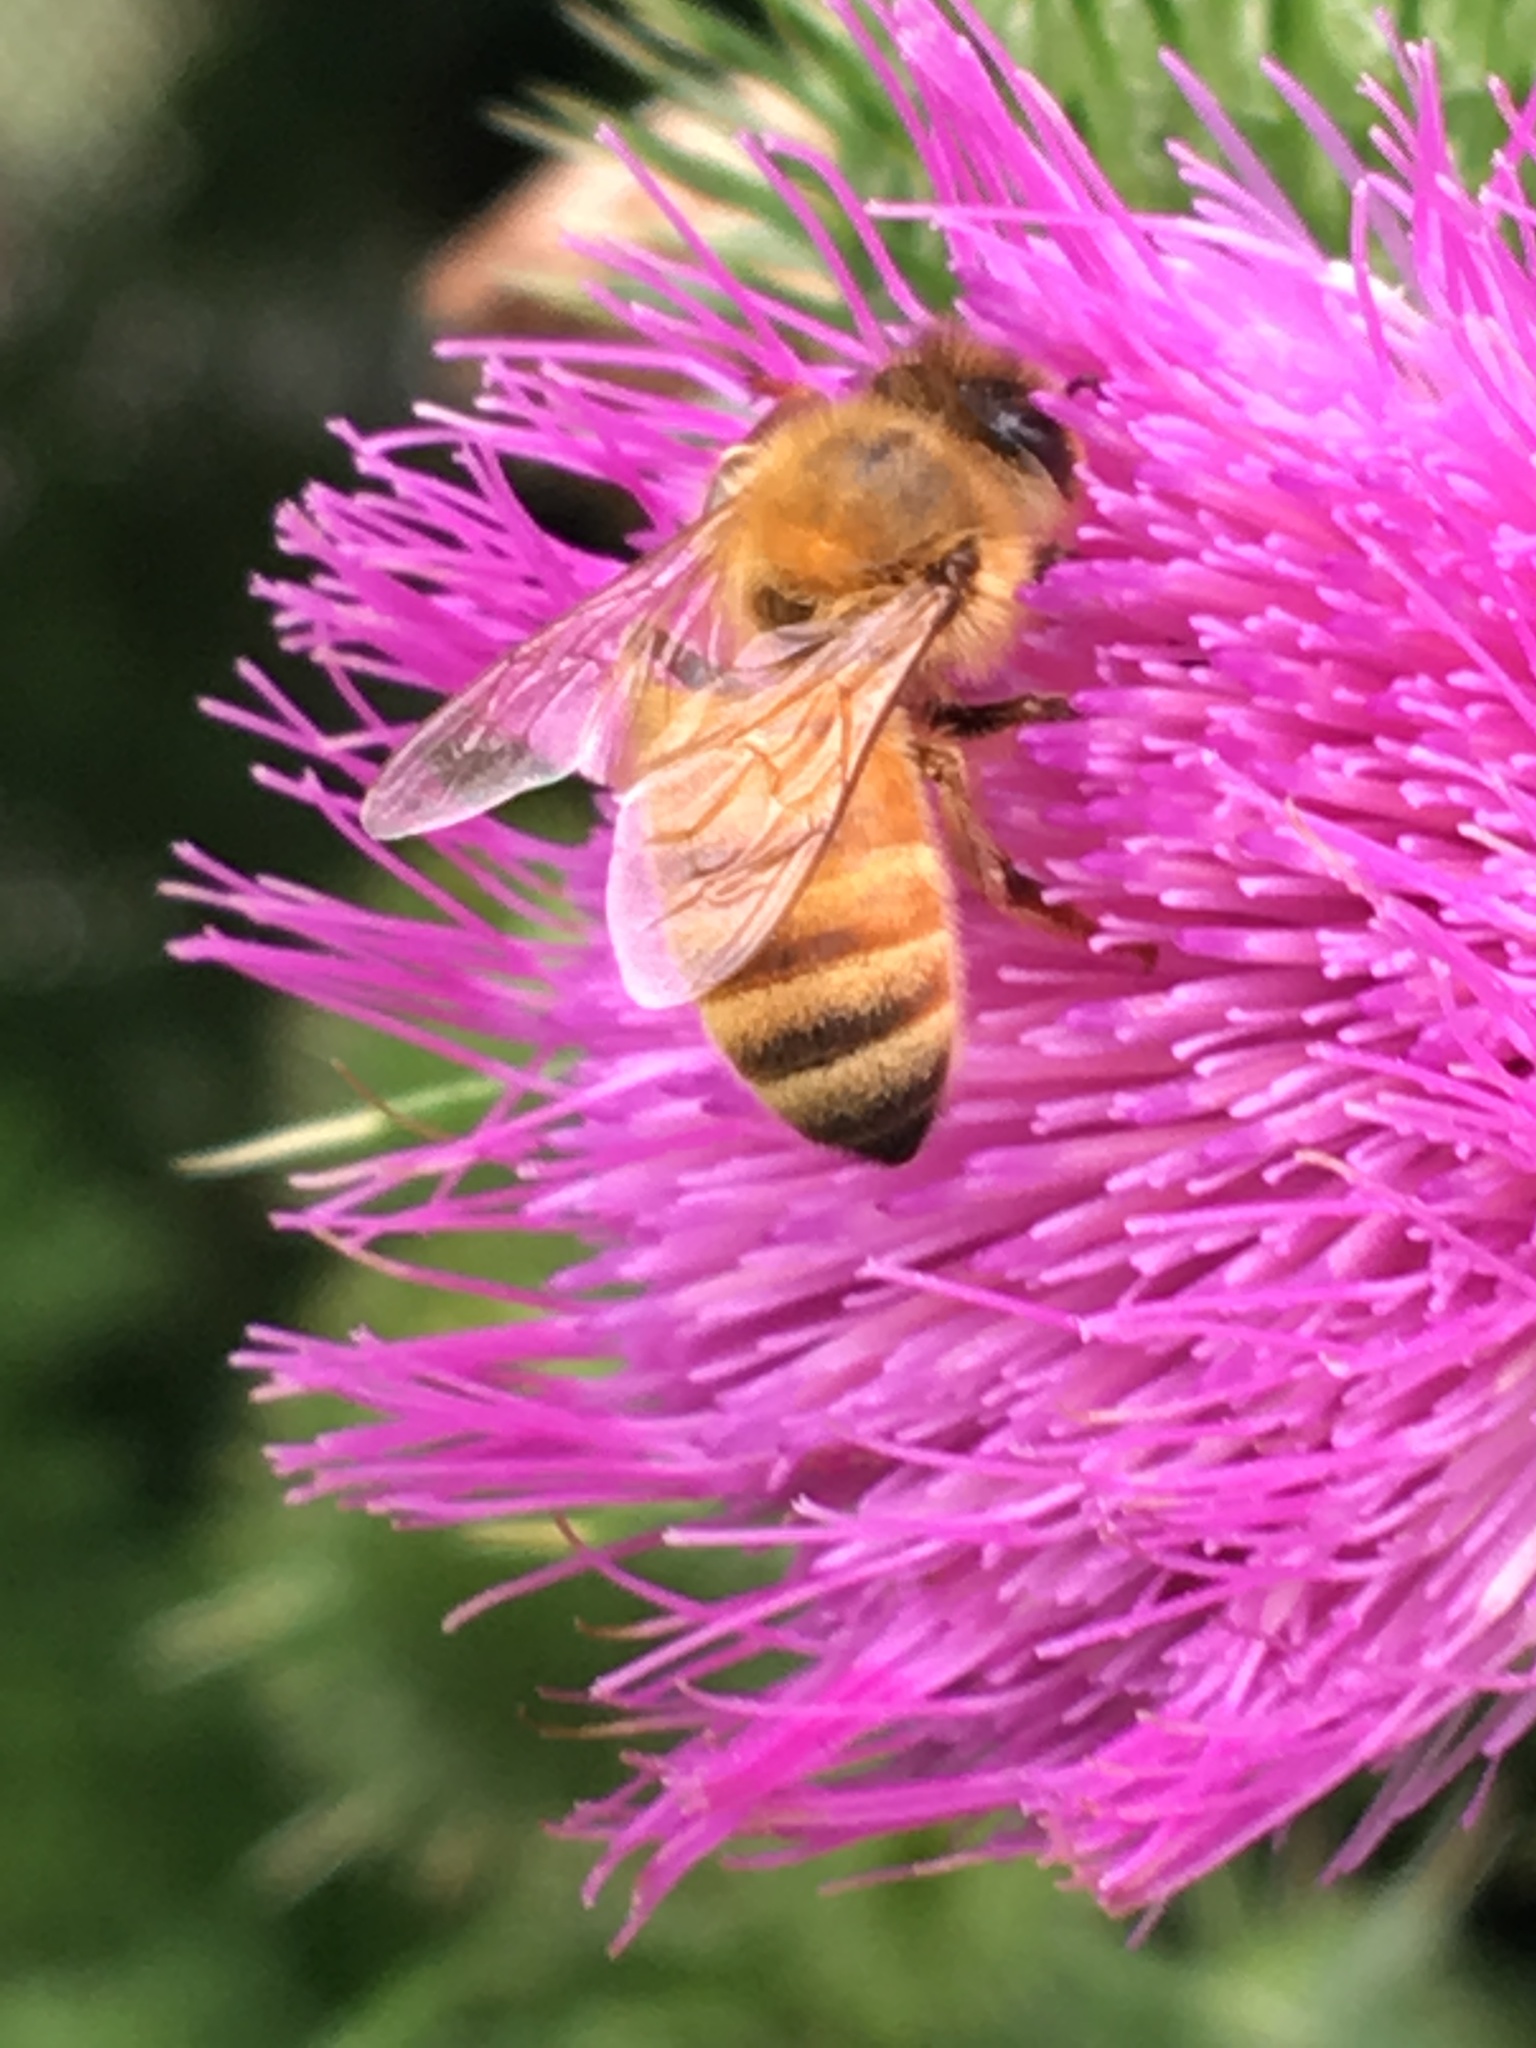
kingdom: Animalia
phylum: Arthropoda
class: Insecta
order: Hymenoptera
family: Apidae
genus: Apis
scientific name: Apis mellifera
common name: Honey bee
